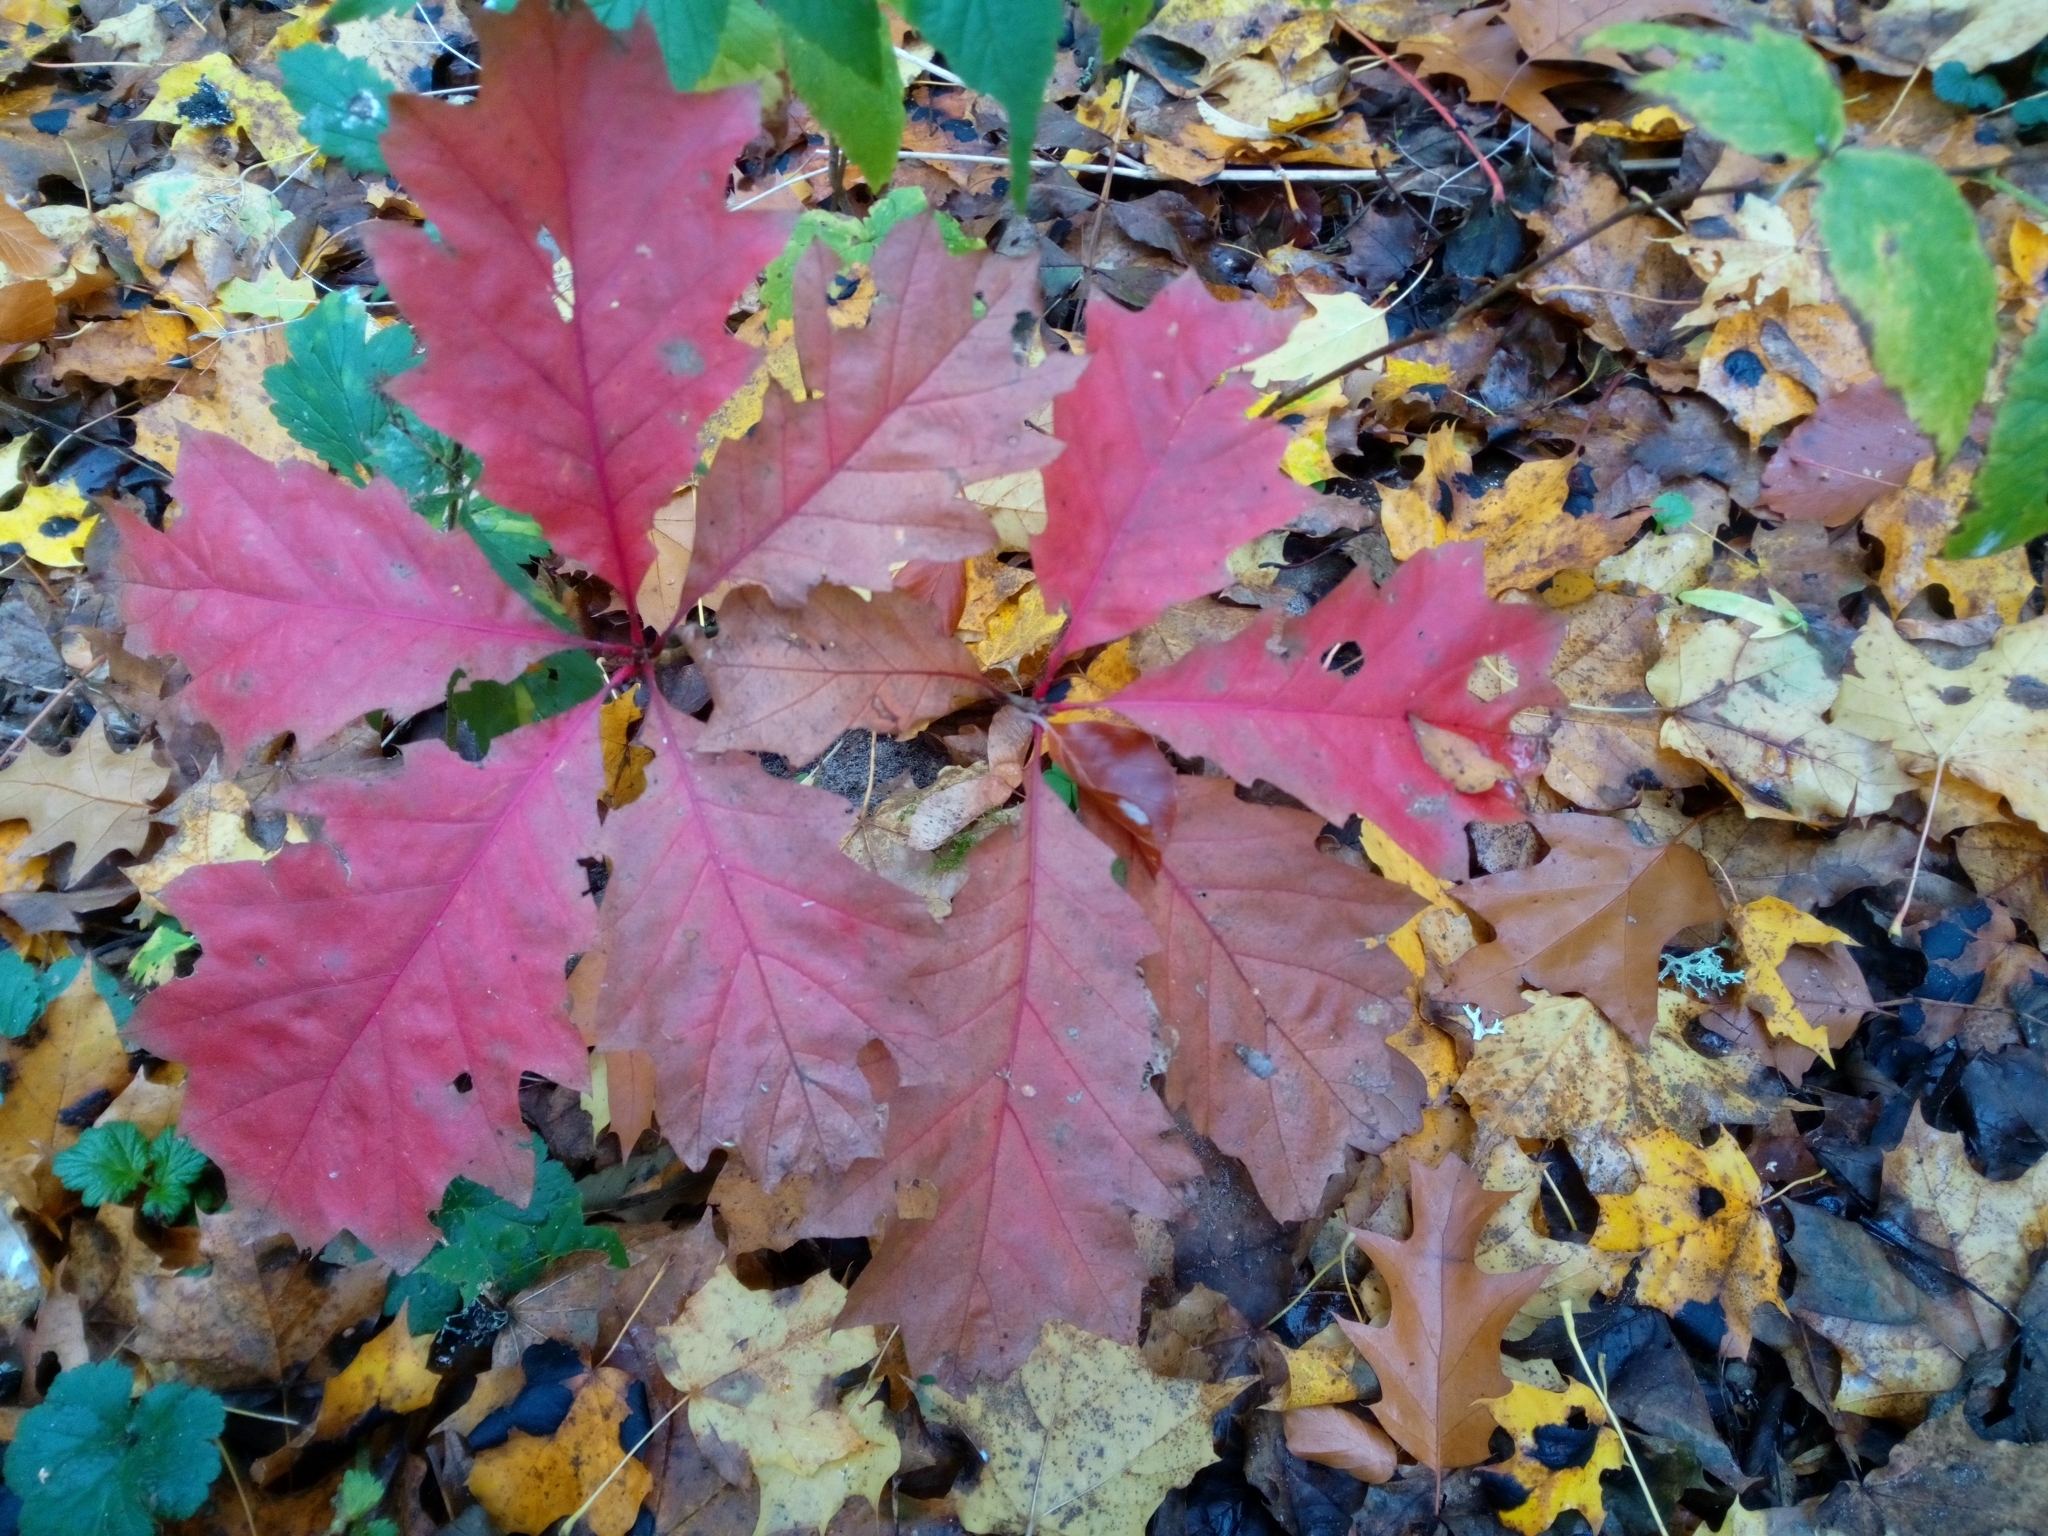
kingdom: Plantae
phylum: Tracheophyta
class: Magnoliopsida
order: Fagales
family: Fagaceae
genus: Quercus
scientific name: Quercus rubra
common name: Red oak
